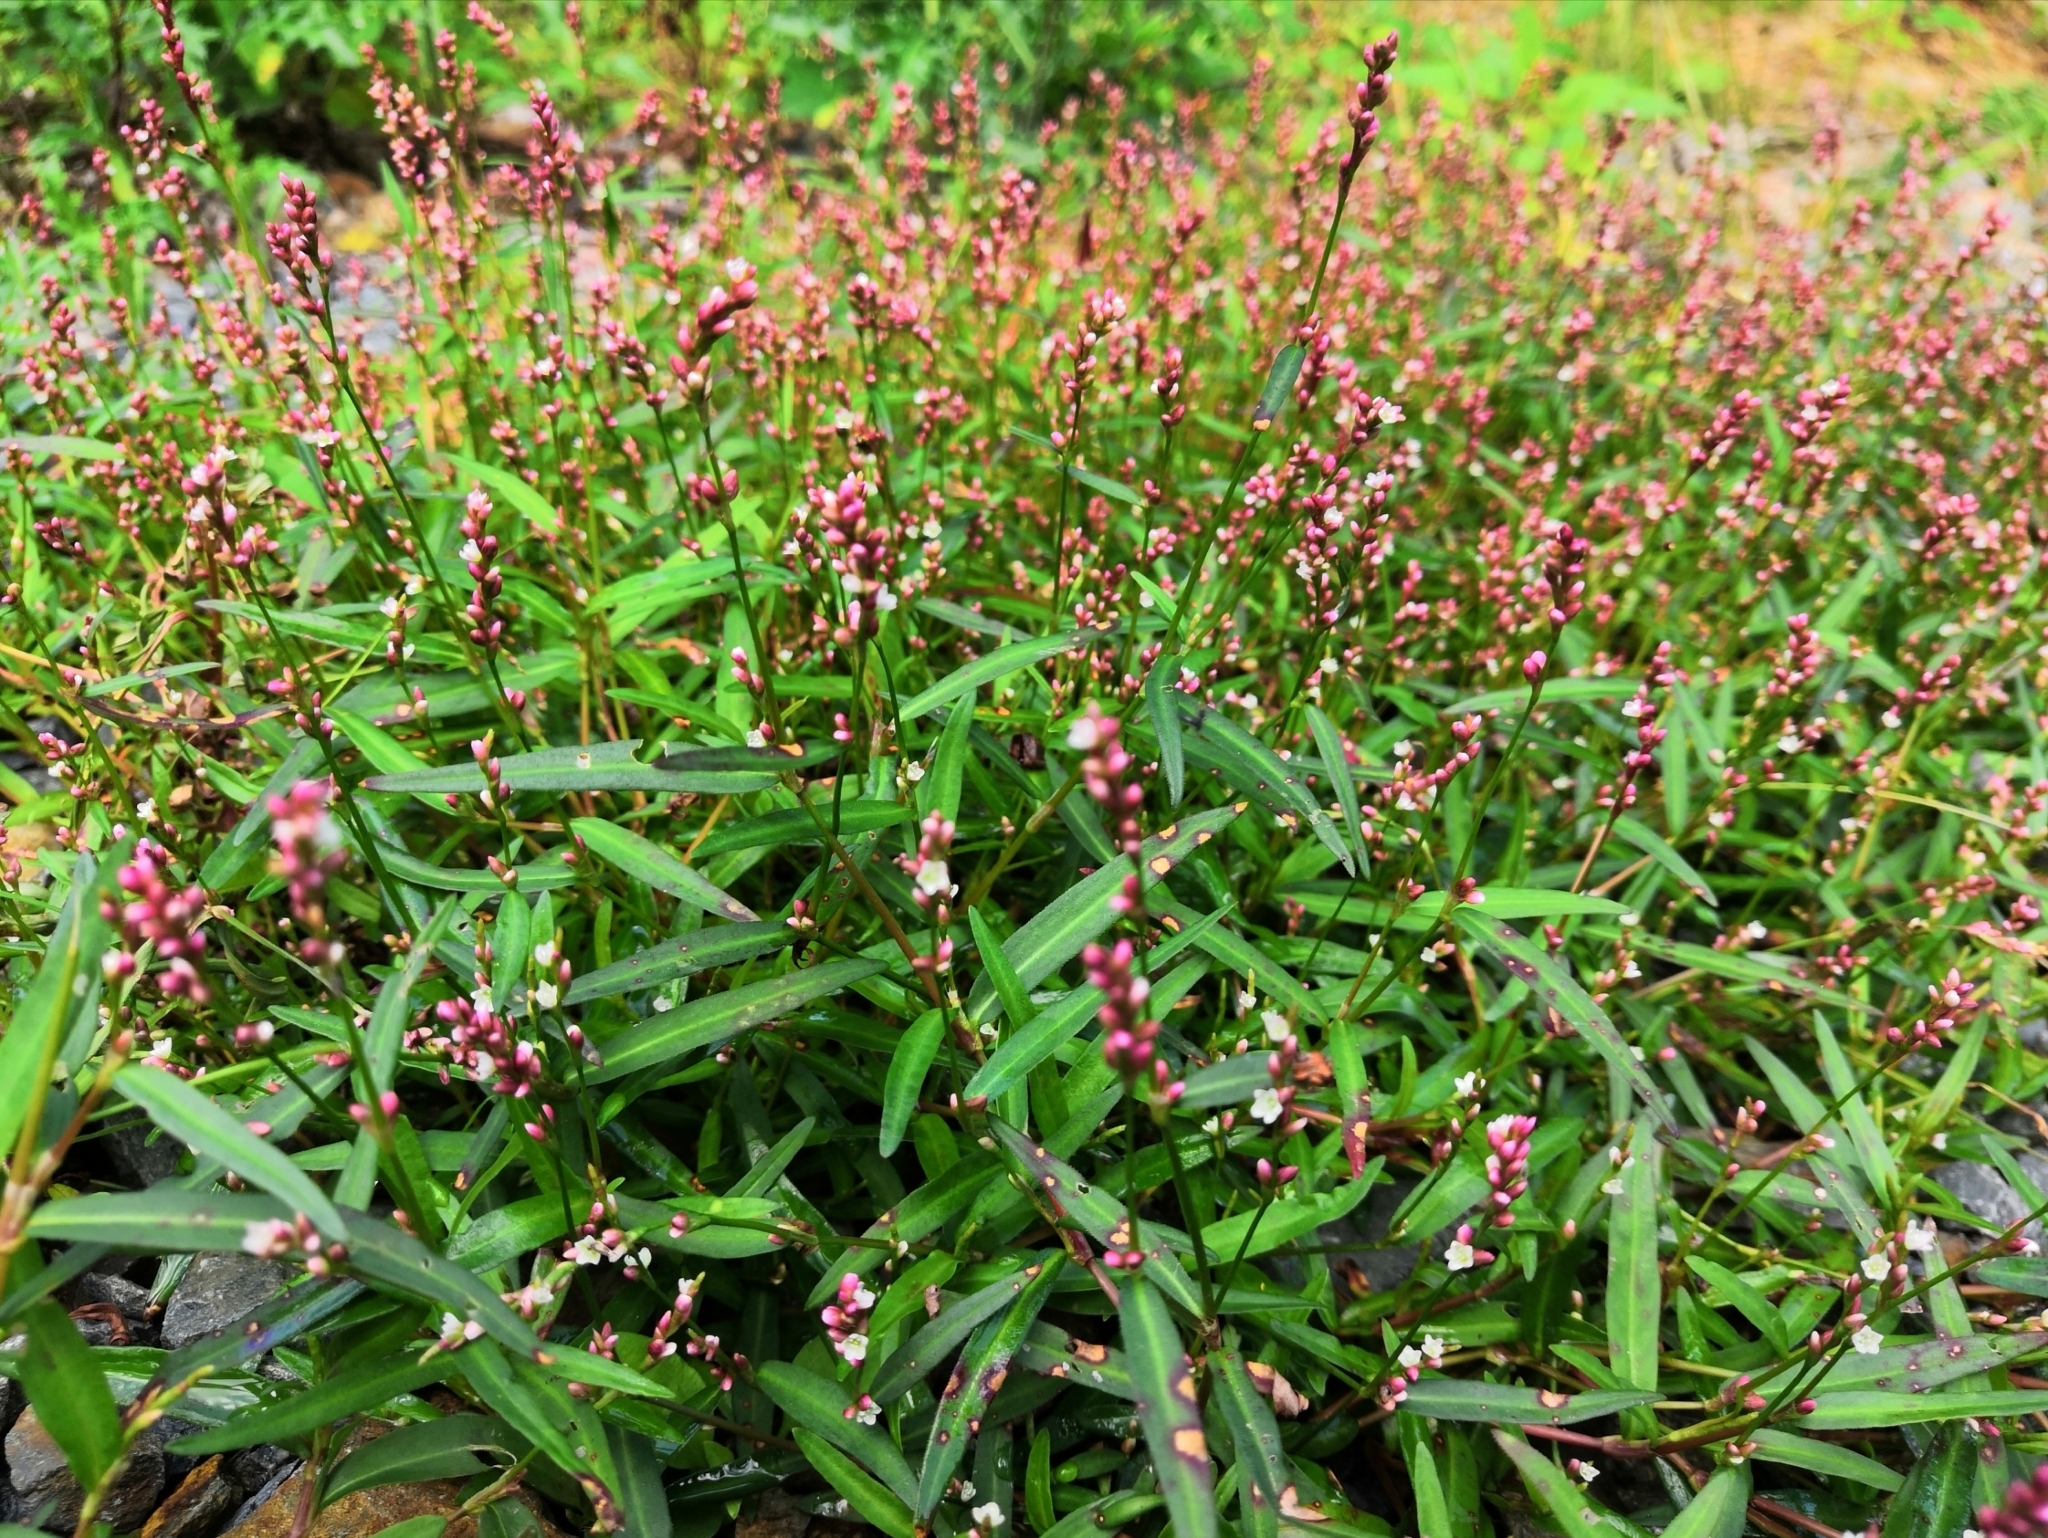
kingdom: Plantae
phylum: Tracheophyta
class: Magnoliopsida
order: Caryophyllales
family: Polygonaceae
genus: Persicaria
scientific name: Persicaria minor
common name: Small water-pepper
